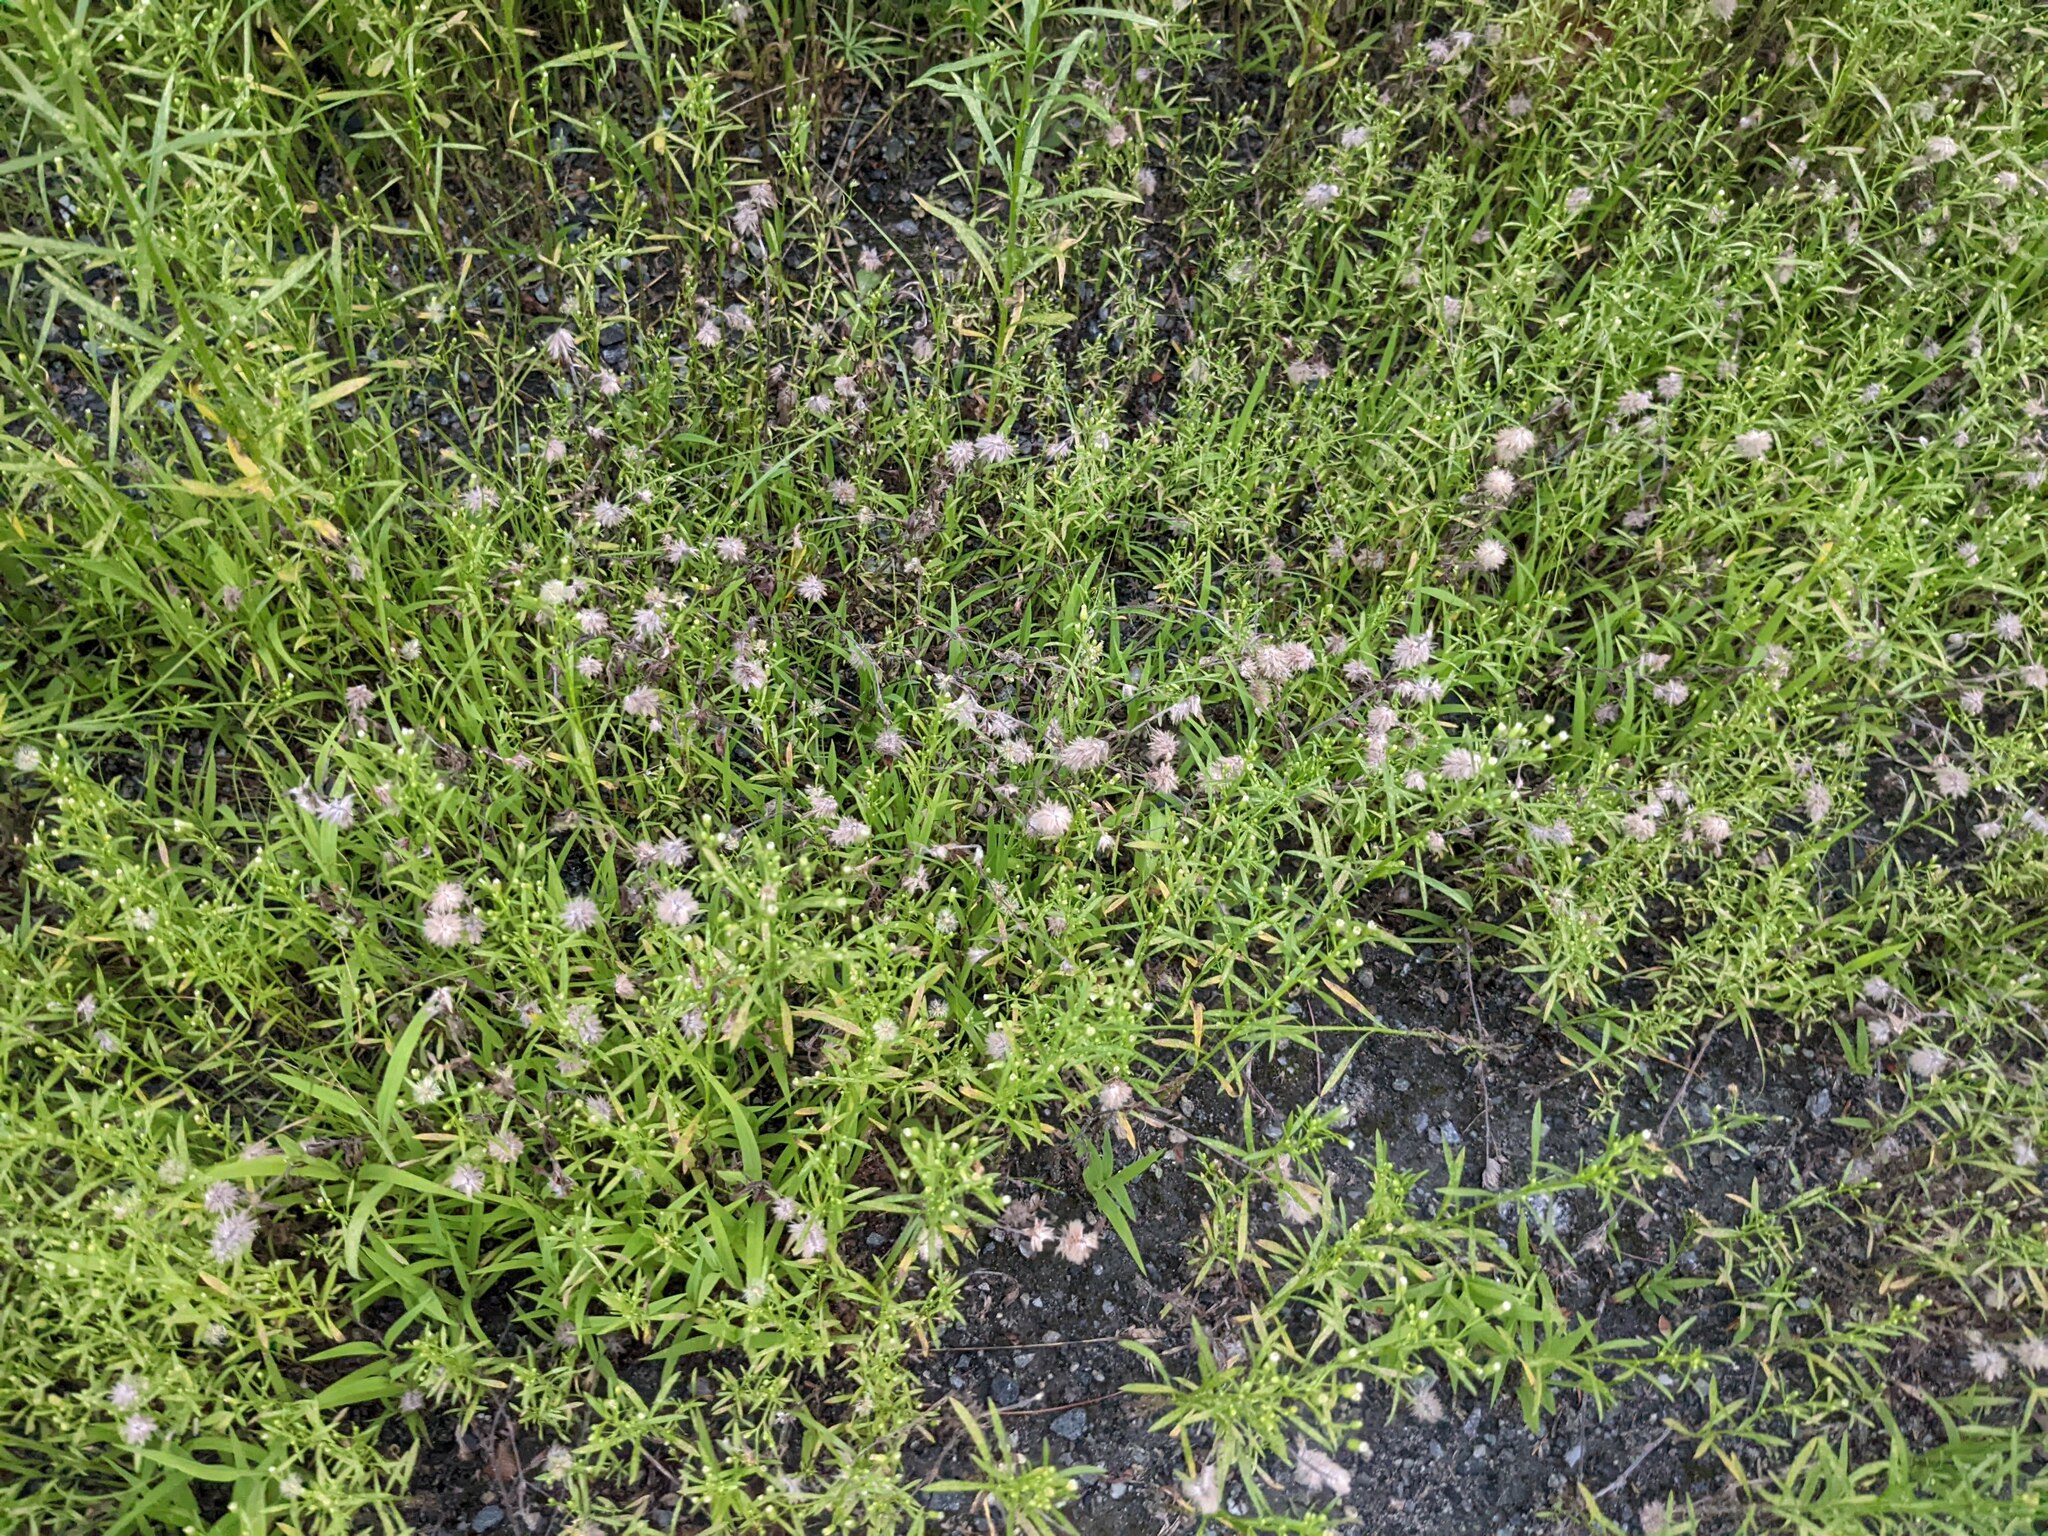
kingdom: Plantae
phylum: Tracheophyta
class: Magnoliopsida
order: Fabales
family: Fabaceae
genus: Trifolium
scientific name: Trifolium arvense
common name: Hare's-foot clover
